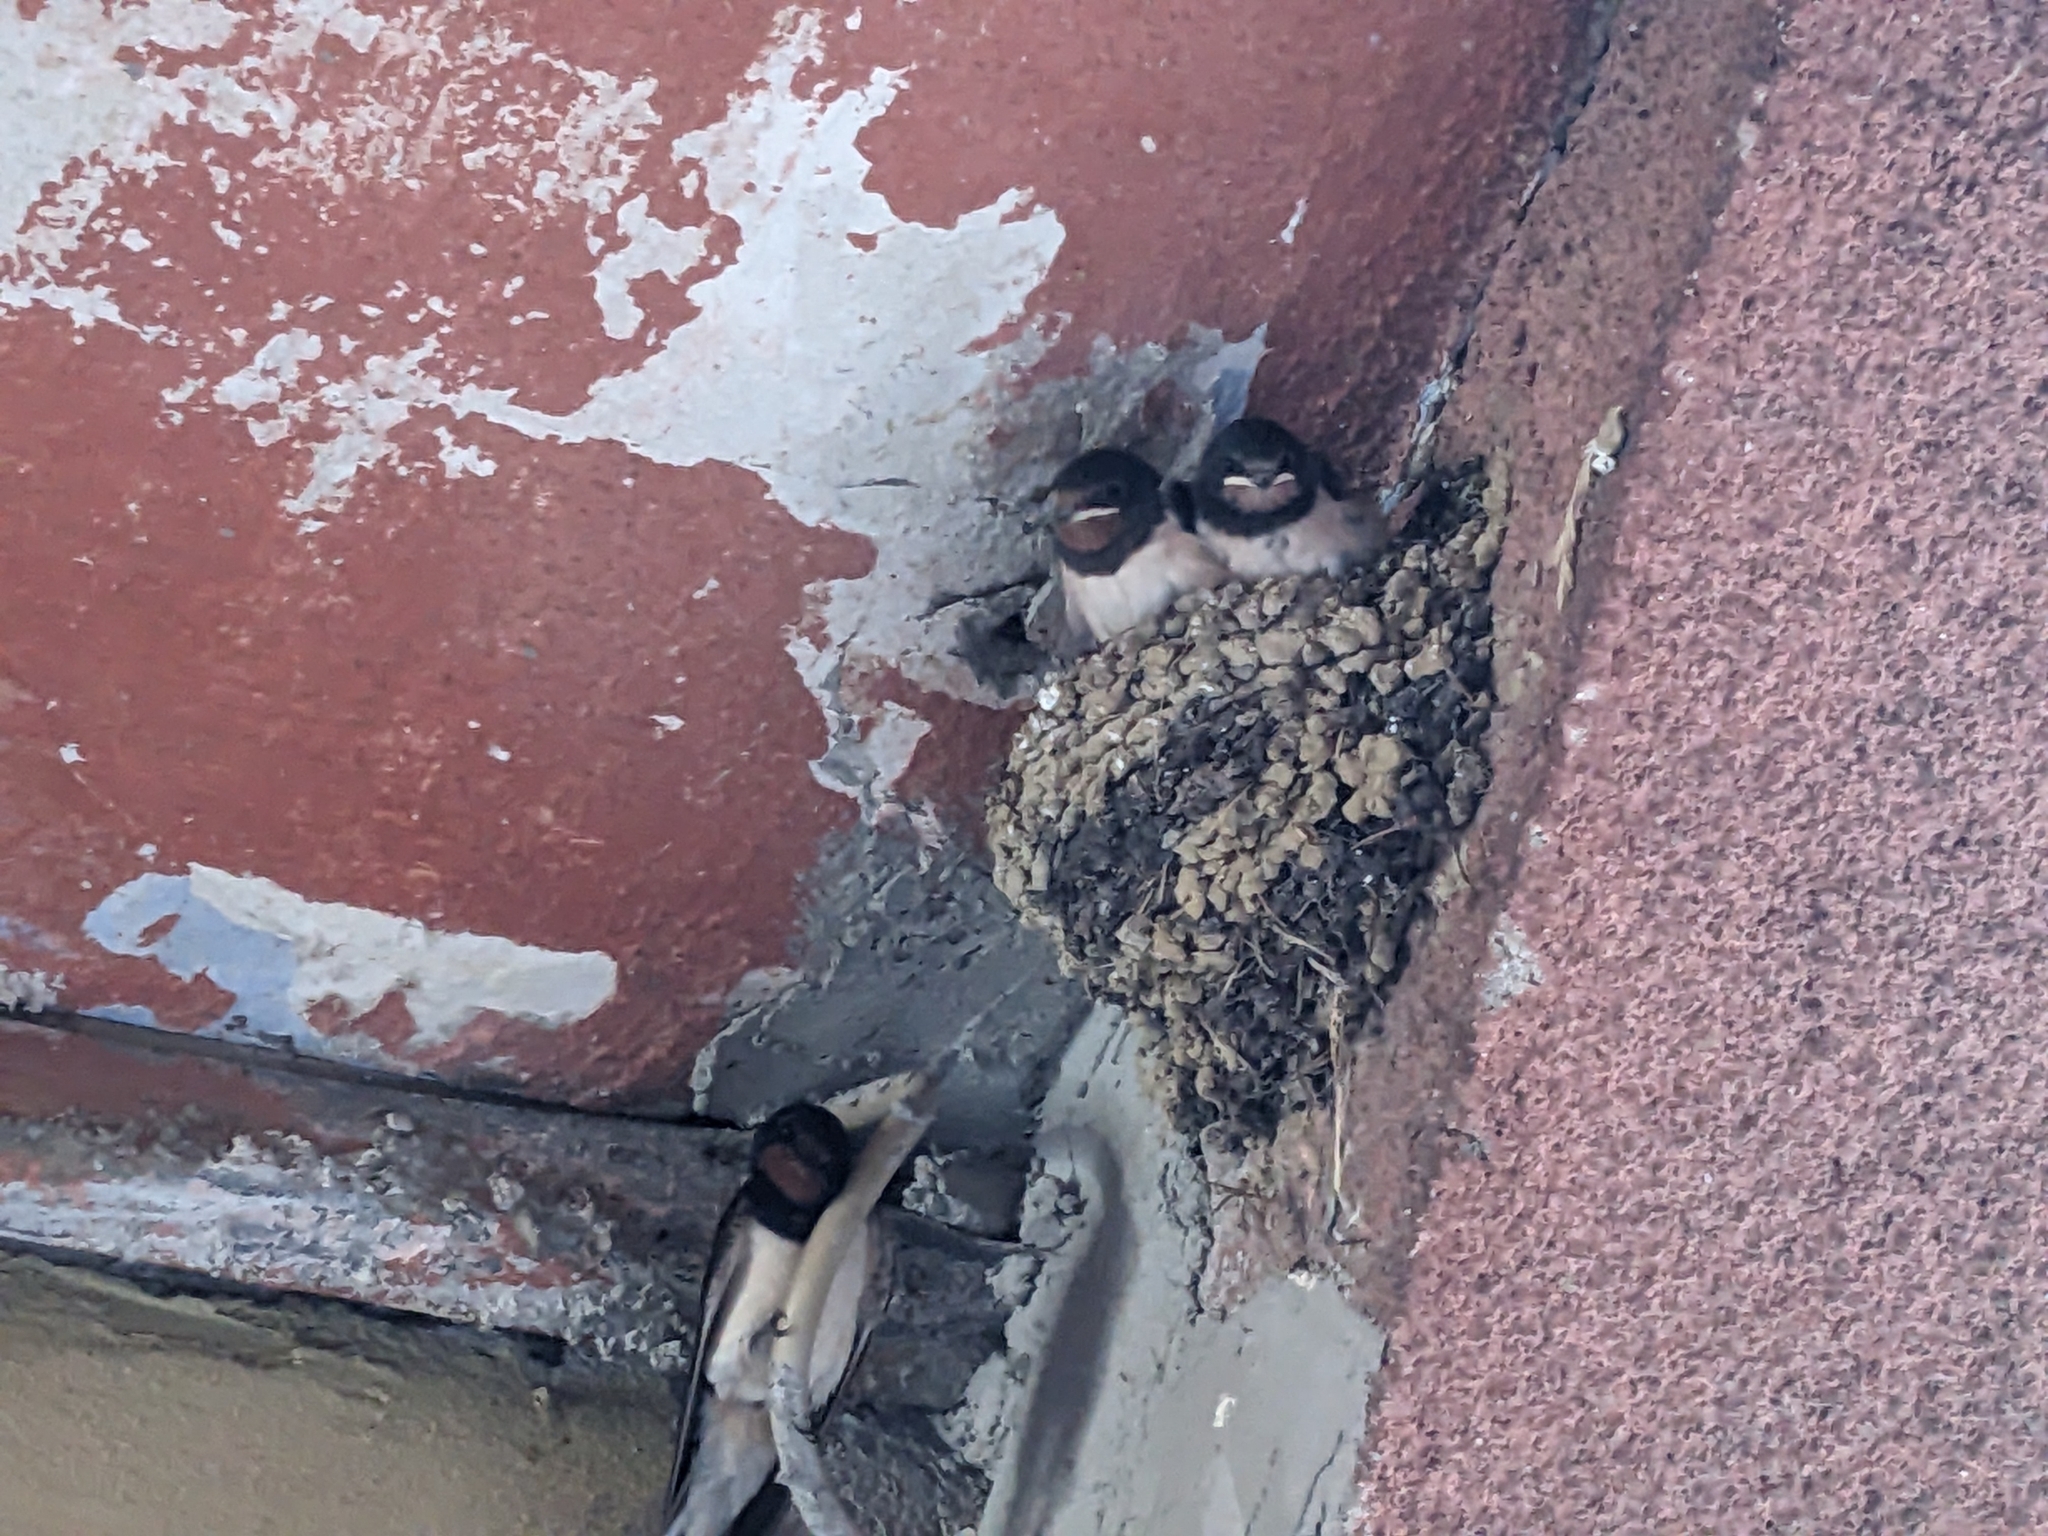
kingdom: Animalia
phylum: Chordata
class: Aves
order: Passeriformes
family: Hirundinidae
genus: Hirundo
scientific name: Hirundo rustica
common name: Barn swallow
